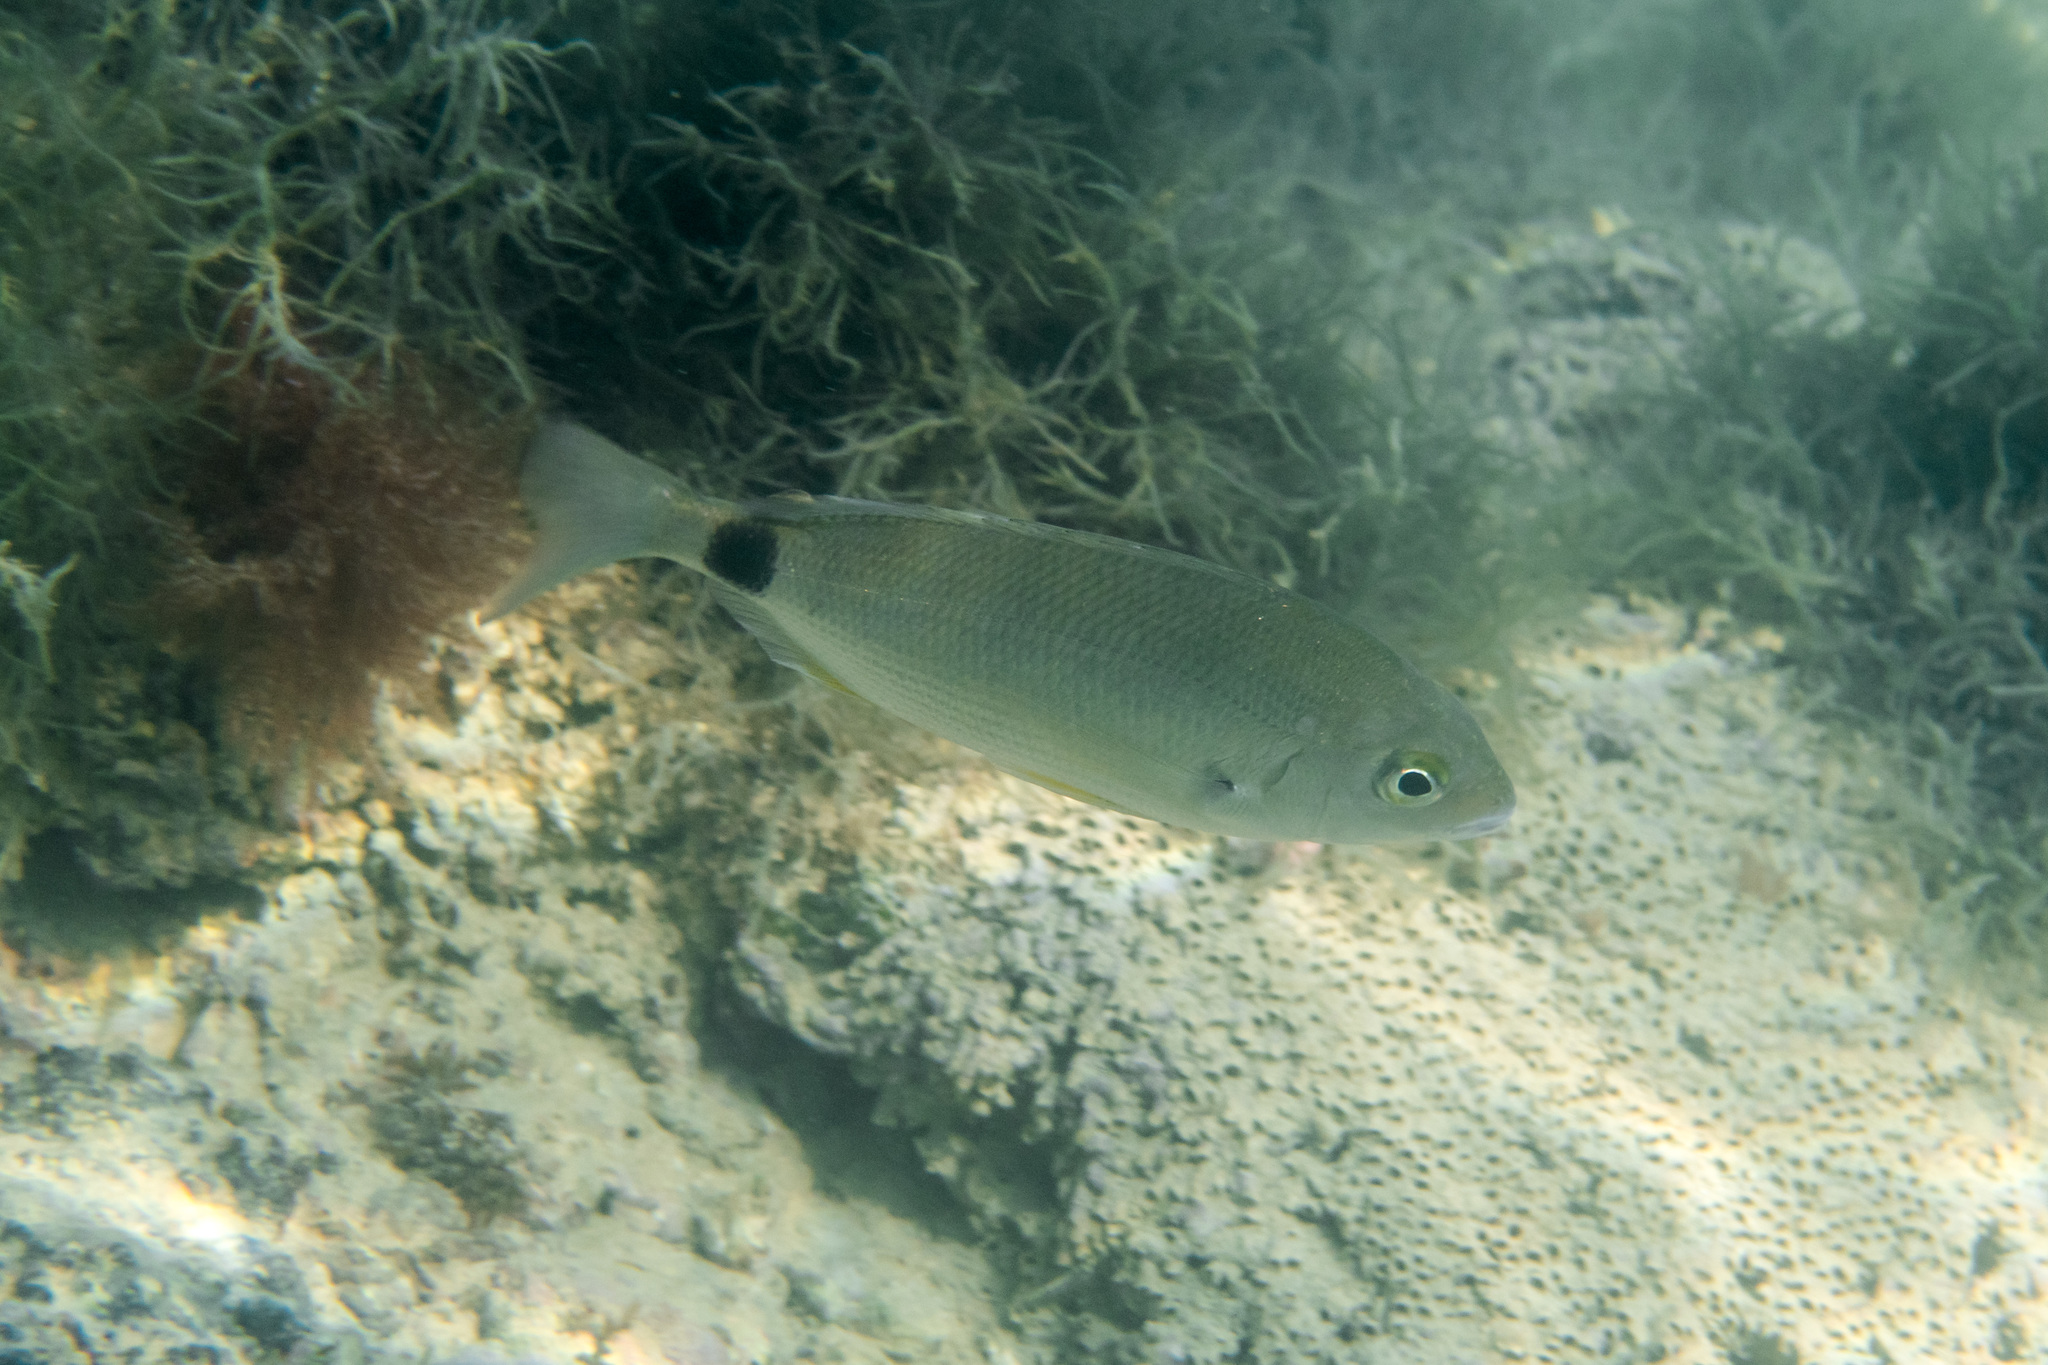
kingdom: Animalia
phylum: Chordata
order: Perciformes
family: Sparidae
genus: Diplodus
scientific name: Diplodus annularis
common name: Annular seabream
